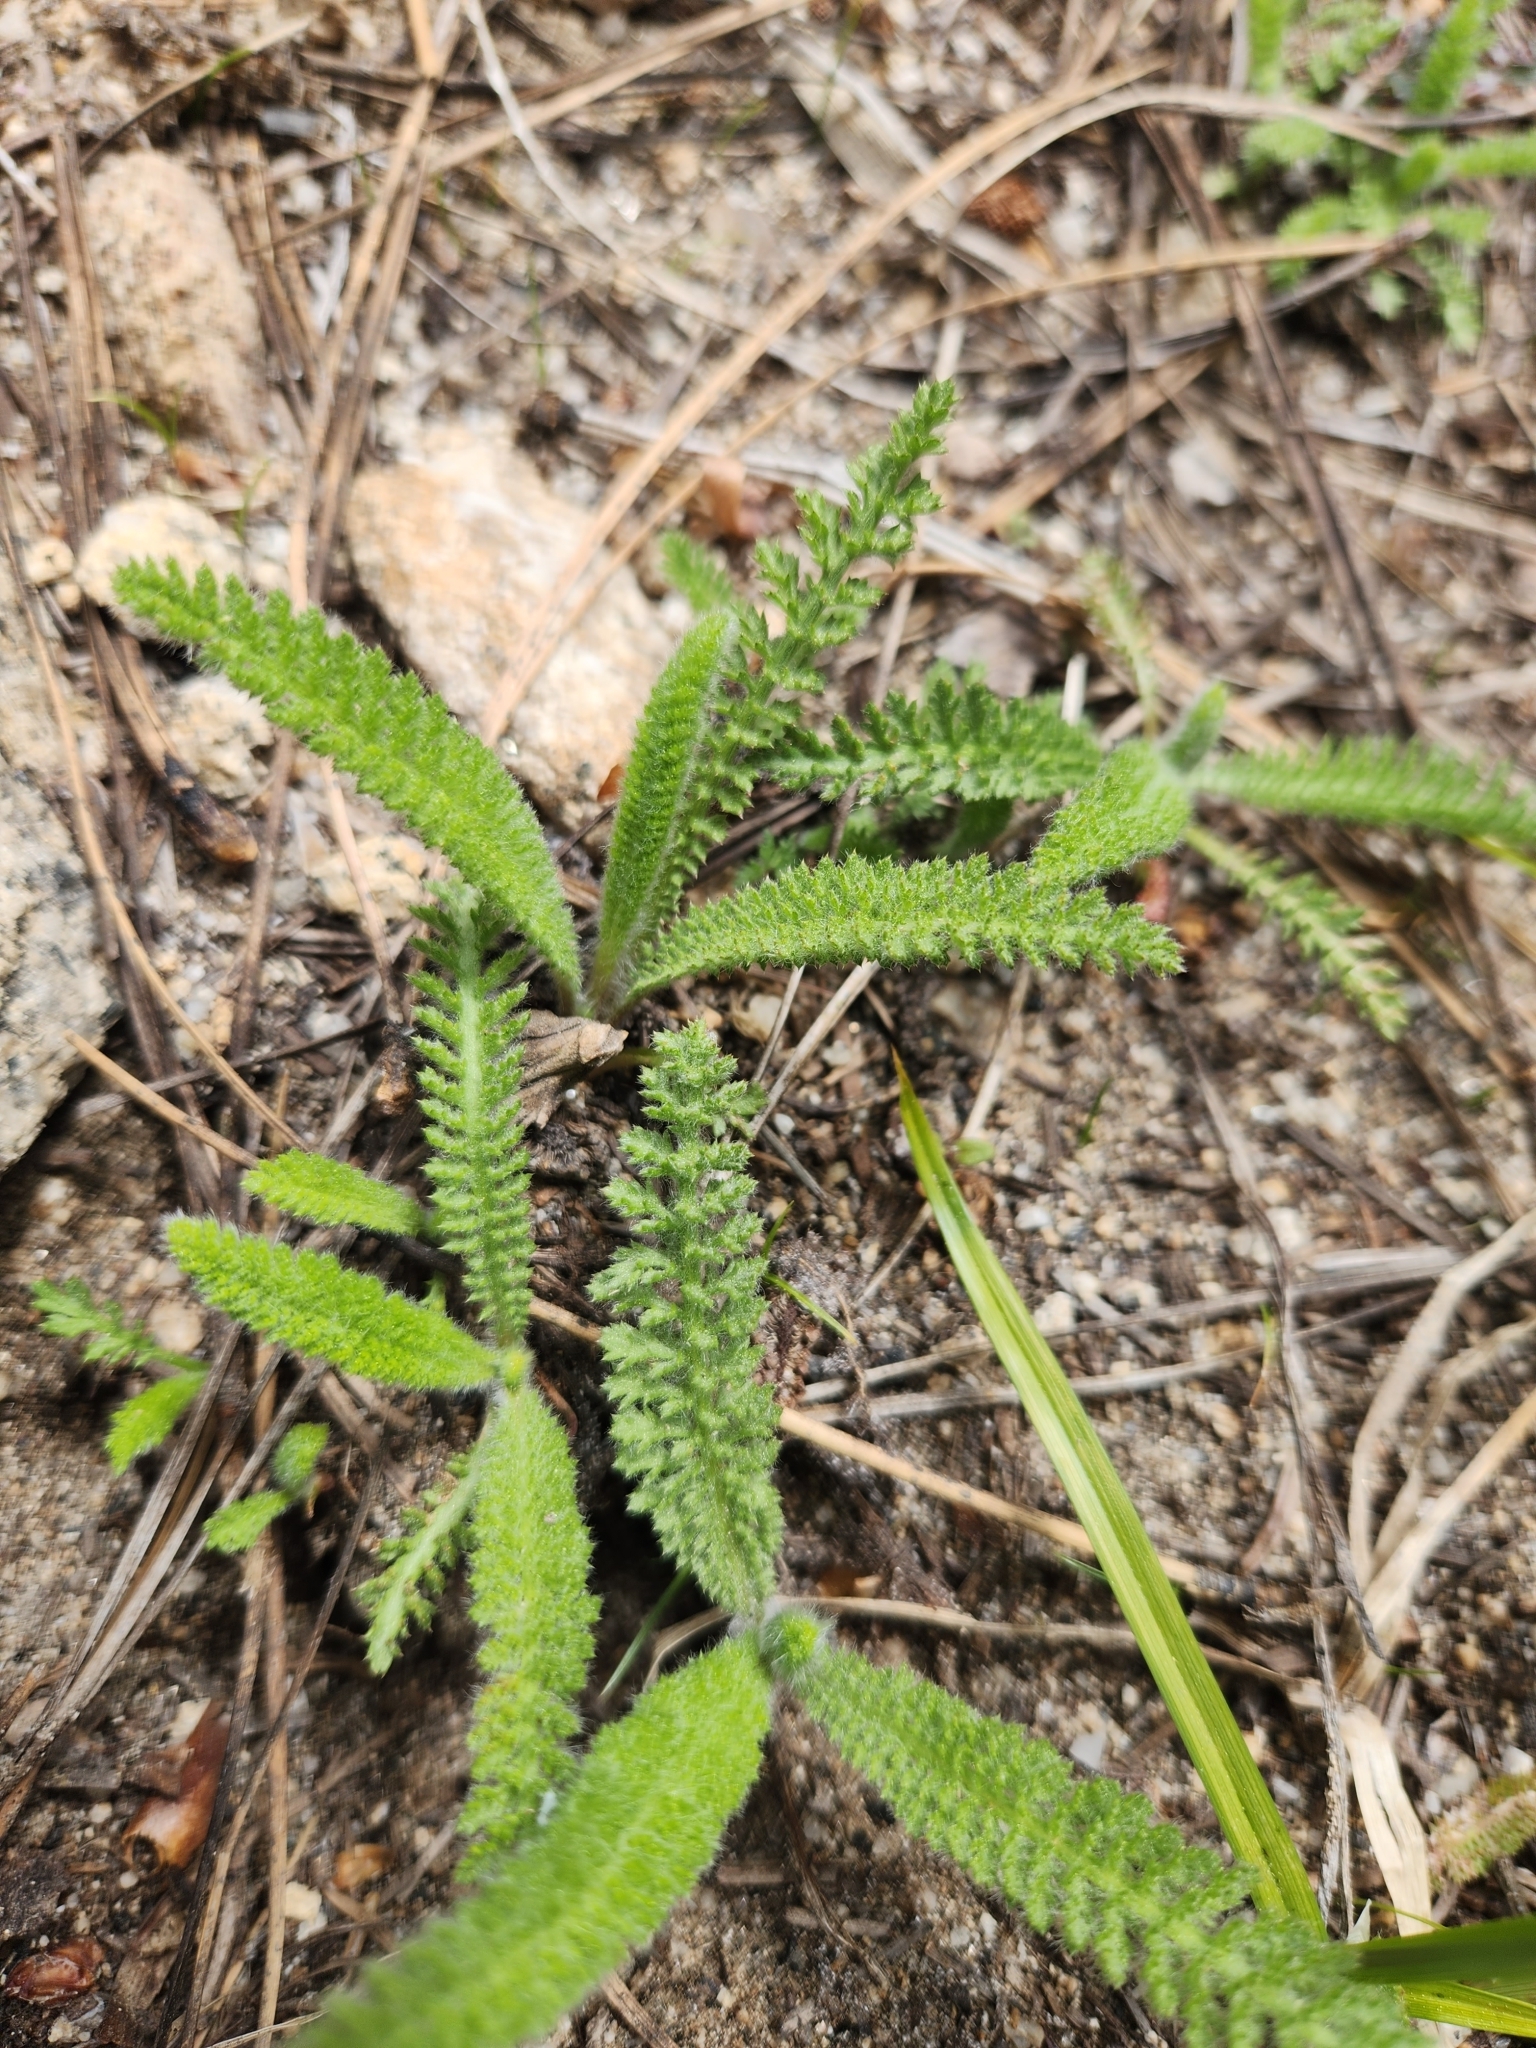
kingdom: Plantae
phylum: Tracheophyta
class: Magnoliopsida
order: Asterales
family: Asteraceae
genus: Achillea
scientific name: Achillea millefolium
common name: Yarrow
